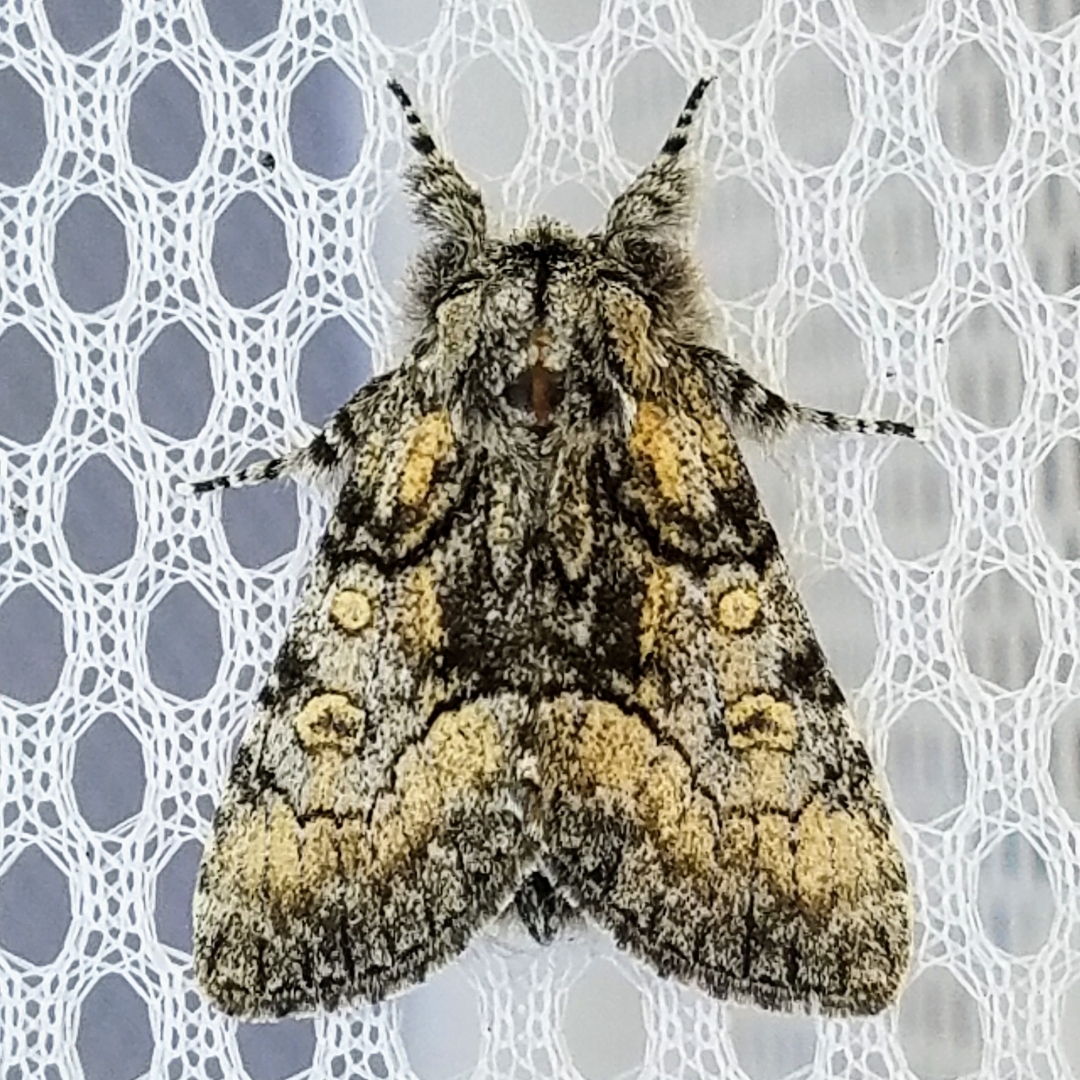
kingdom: Animalia
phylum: Arthropoda
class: Insecta
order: Lepidoptera
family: Noctuidae
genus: Raphia
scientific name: Raphia frater
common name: Brother
